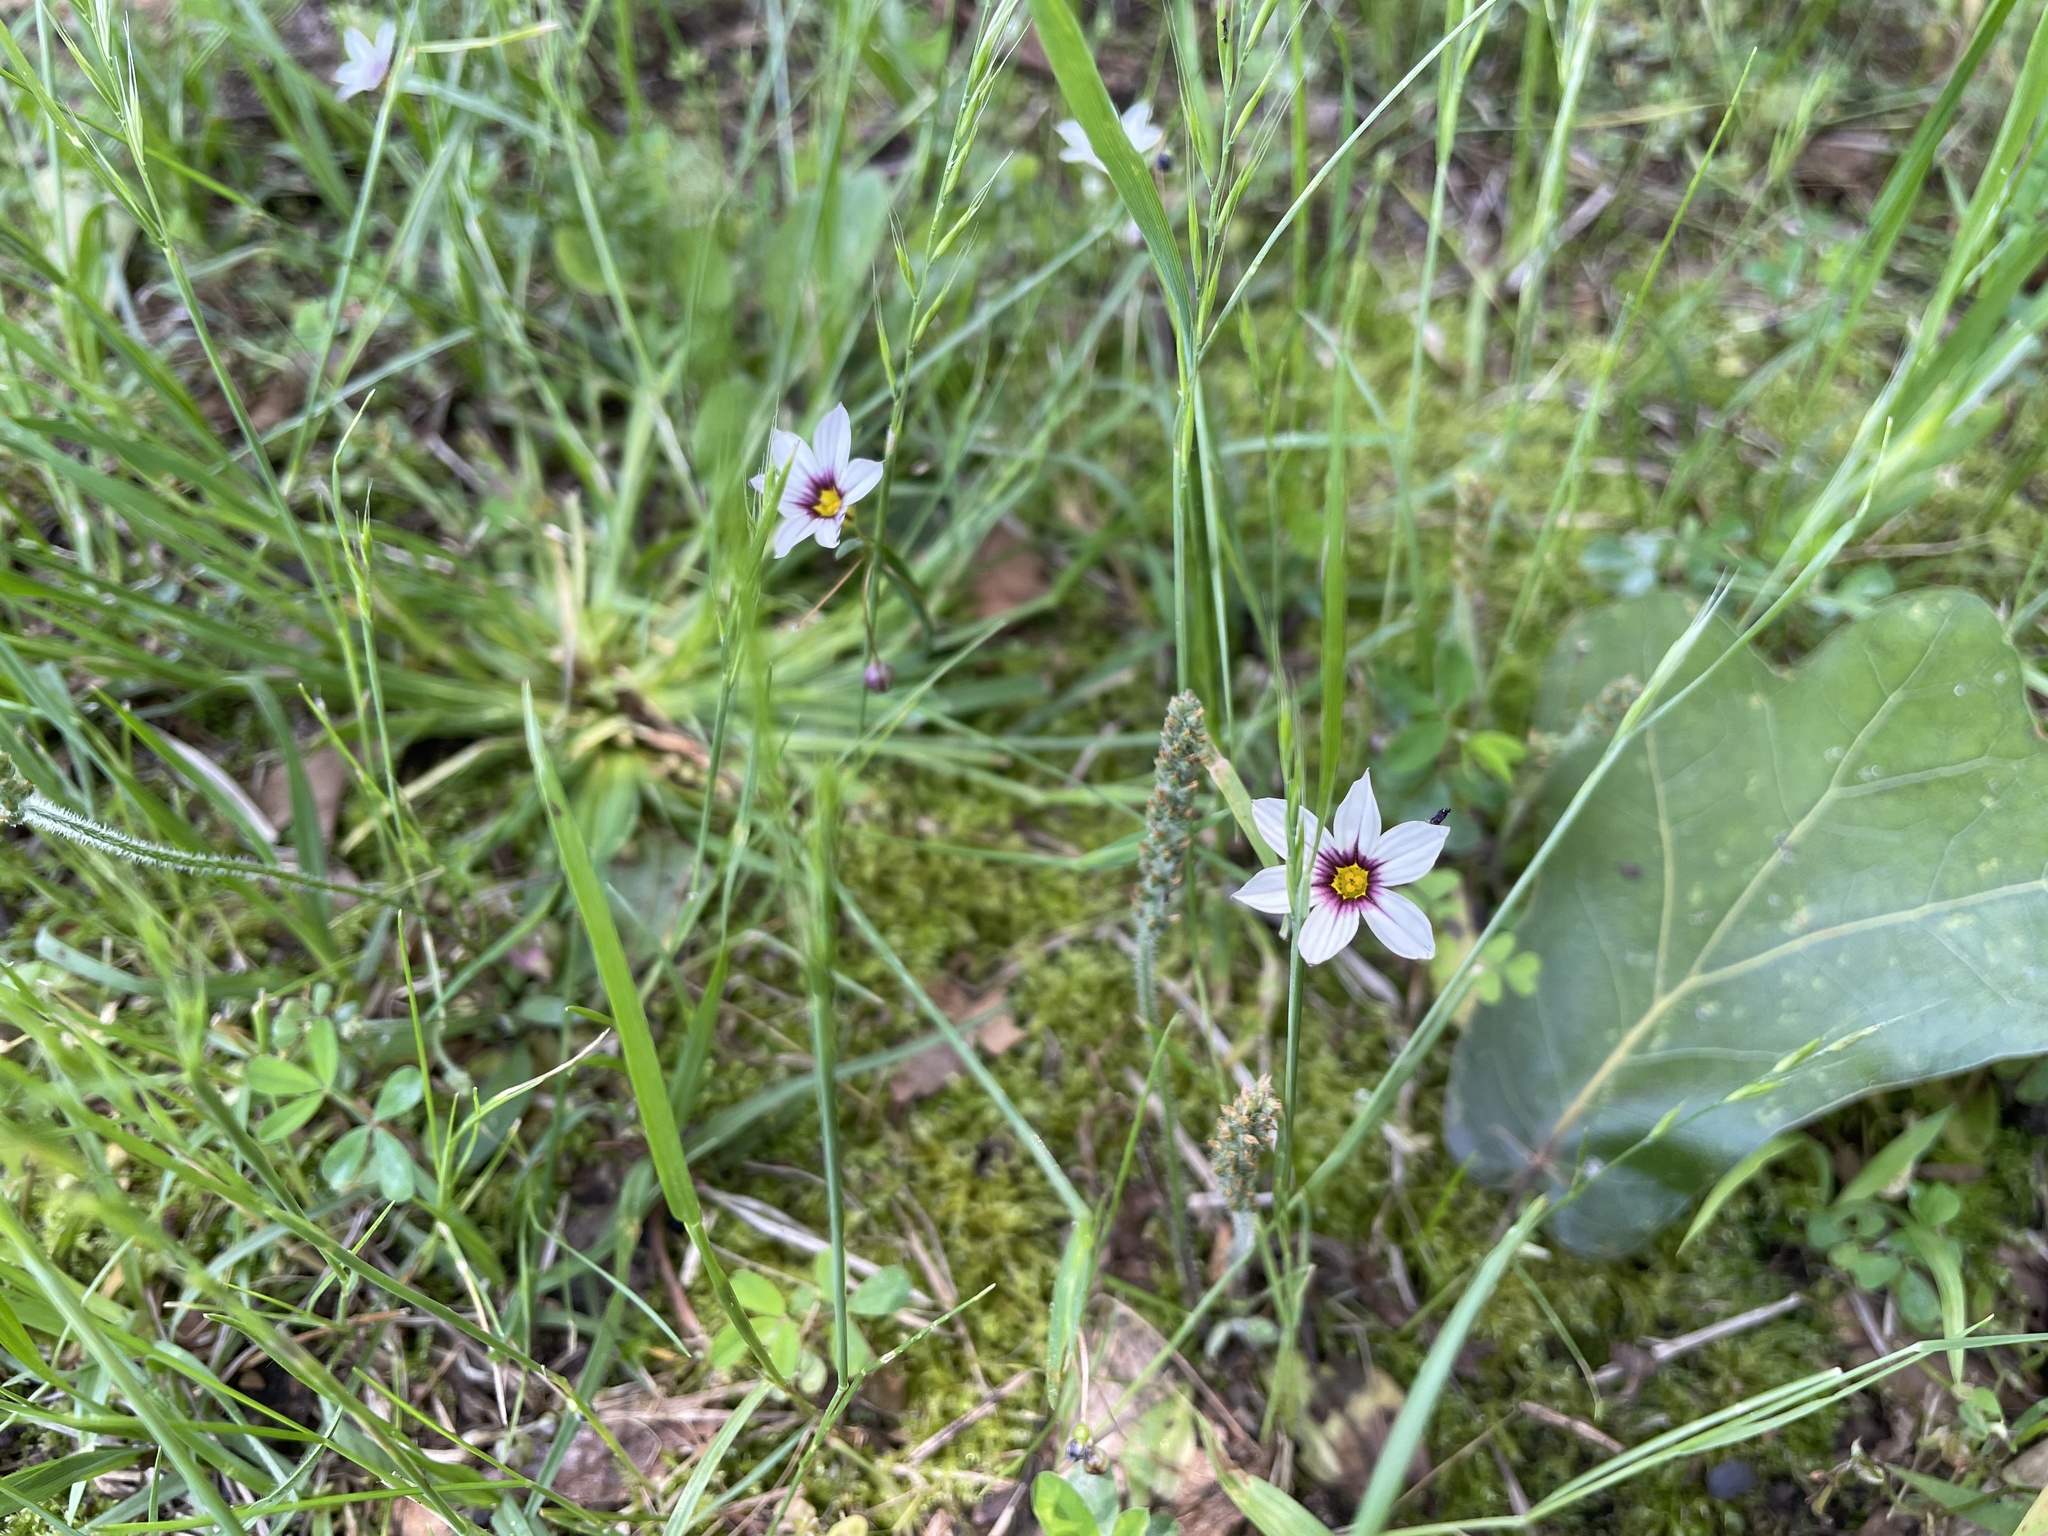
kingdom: Plantae
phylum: Tracheophyta
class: Liliopsida
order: Asparagales
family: Iridaceae
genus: Sisyrinchium
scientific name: Sisyrinchium micranthum
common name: Bermuda pigroot
